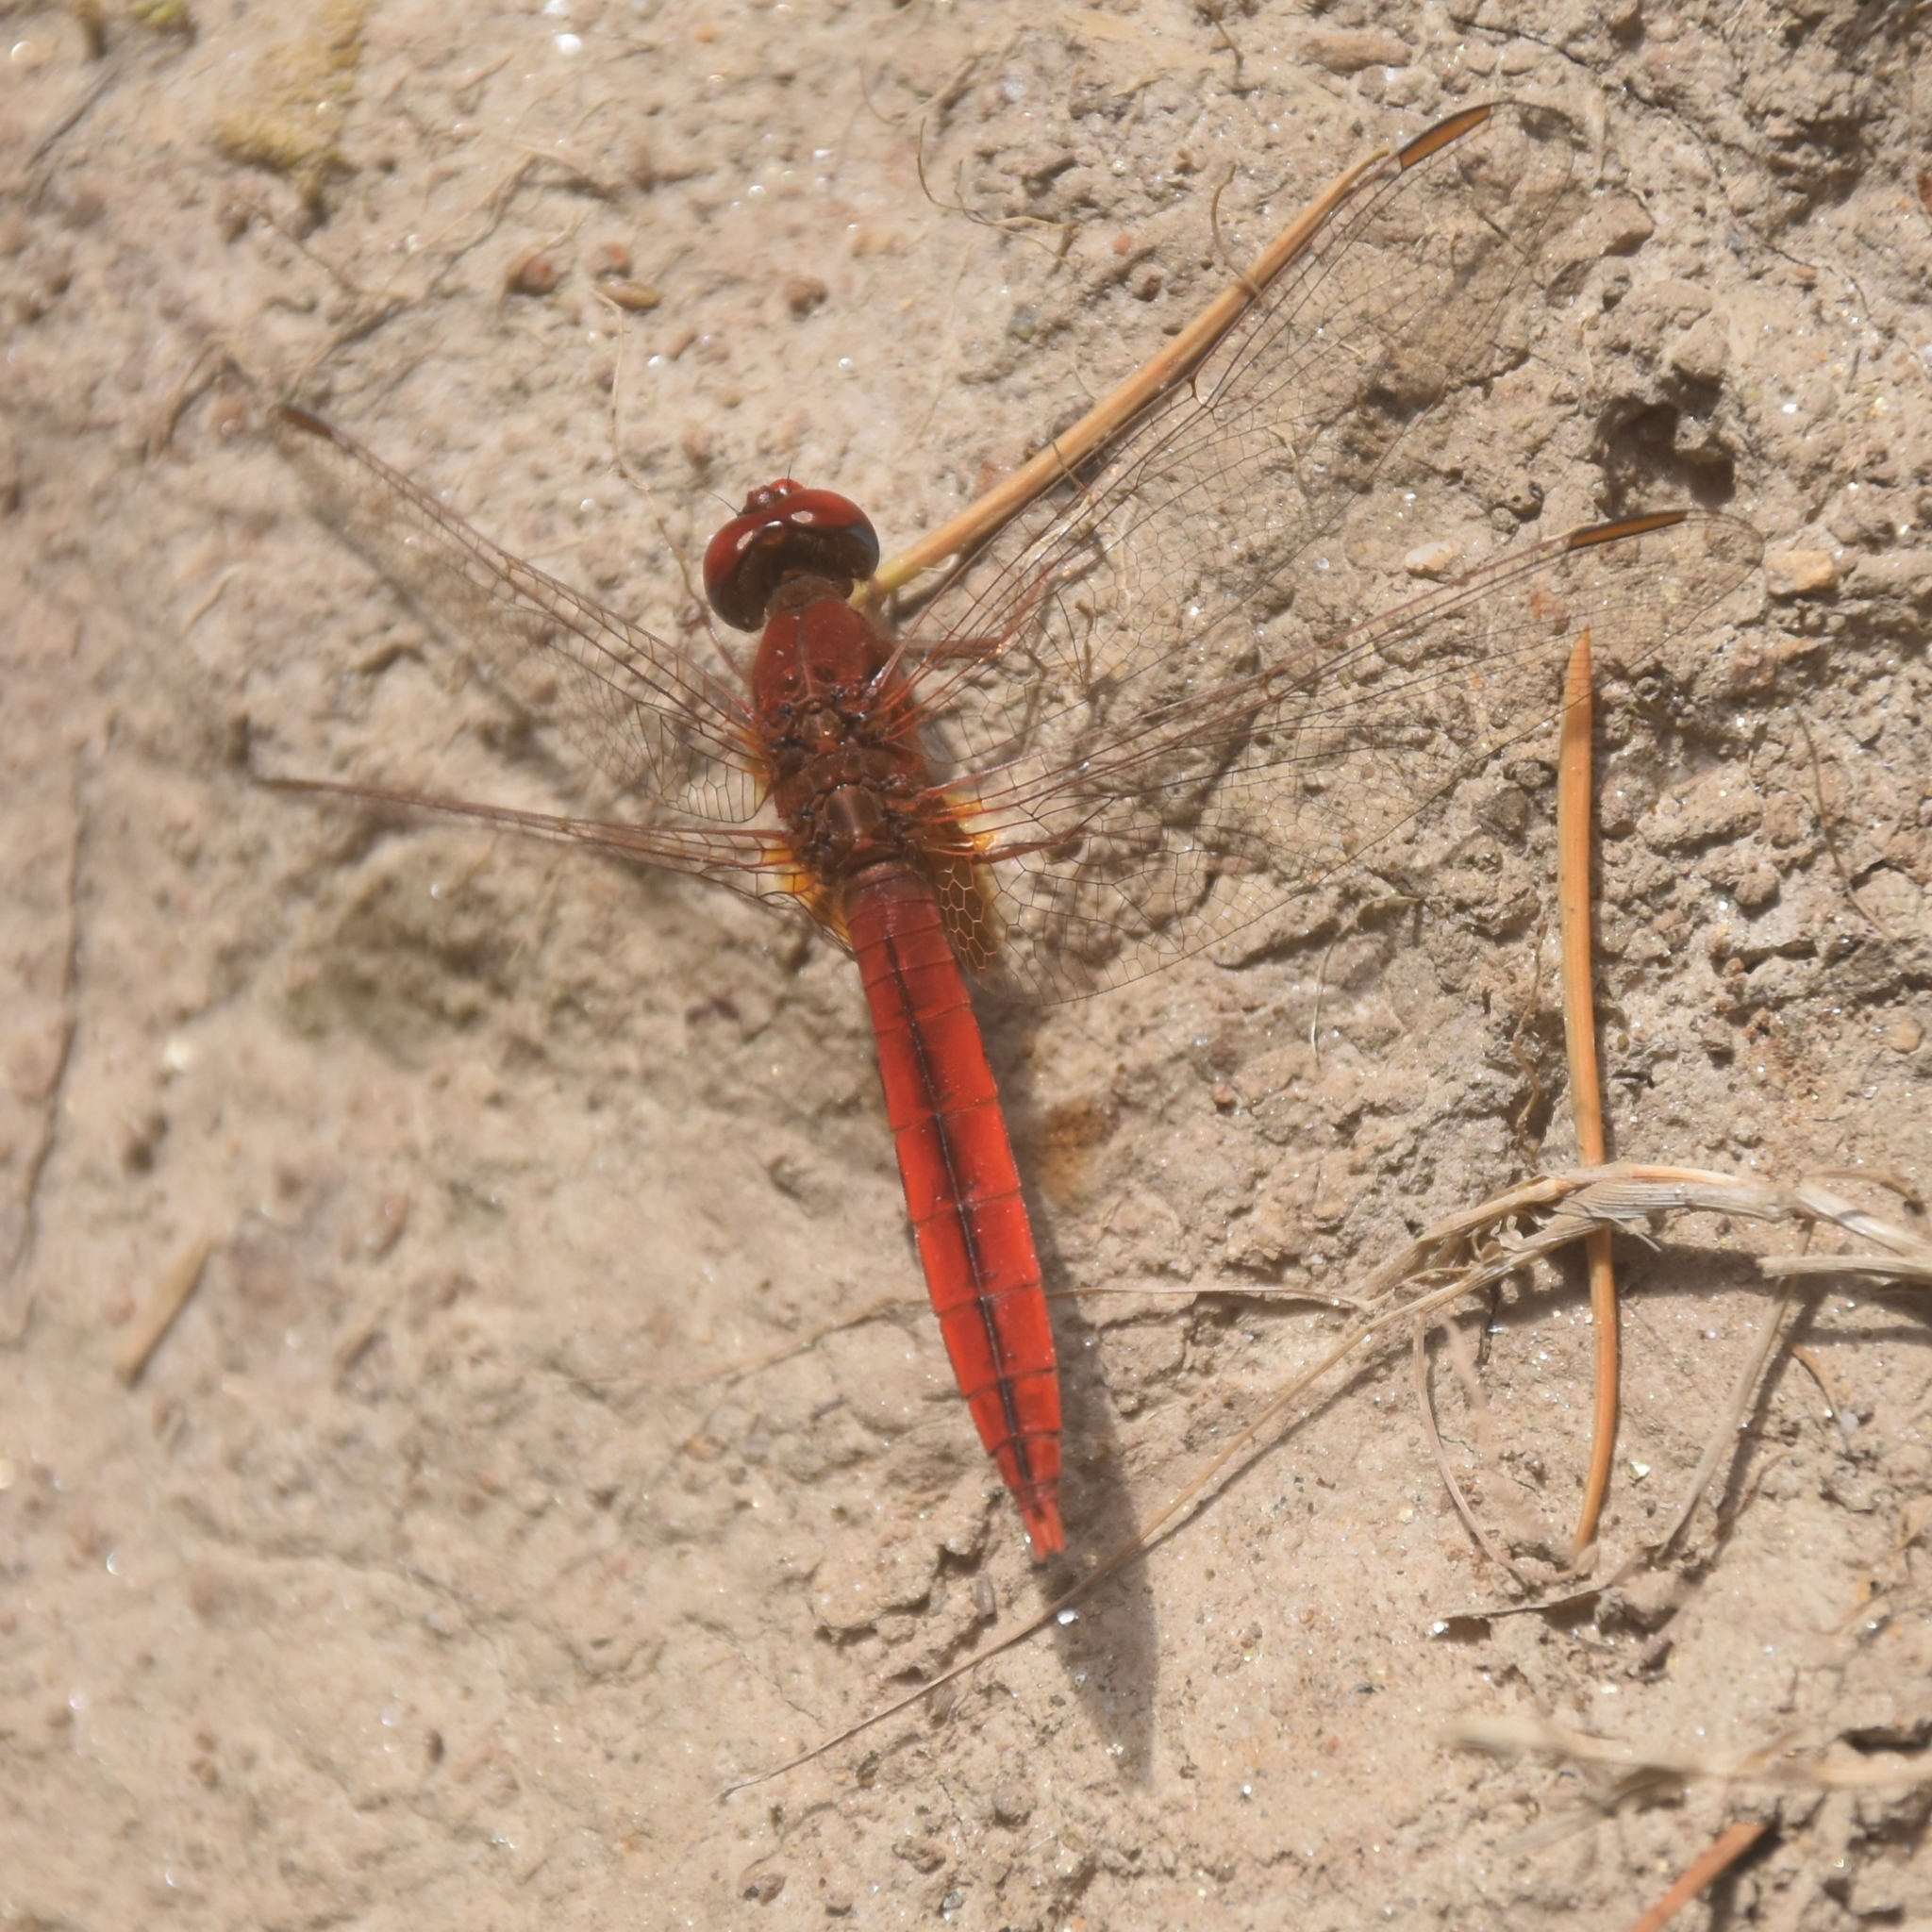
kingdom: Animalia
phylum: Arthropoda
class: Insecta
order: Odonata
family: Libellulidae
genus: Crocothemis
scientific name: Crocothemis servilia
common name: Scarlet skimmer
